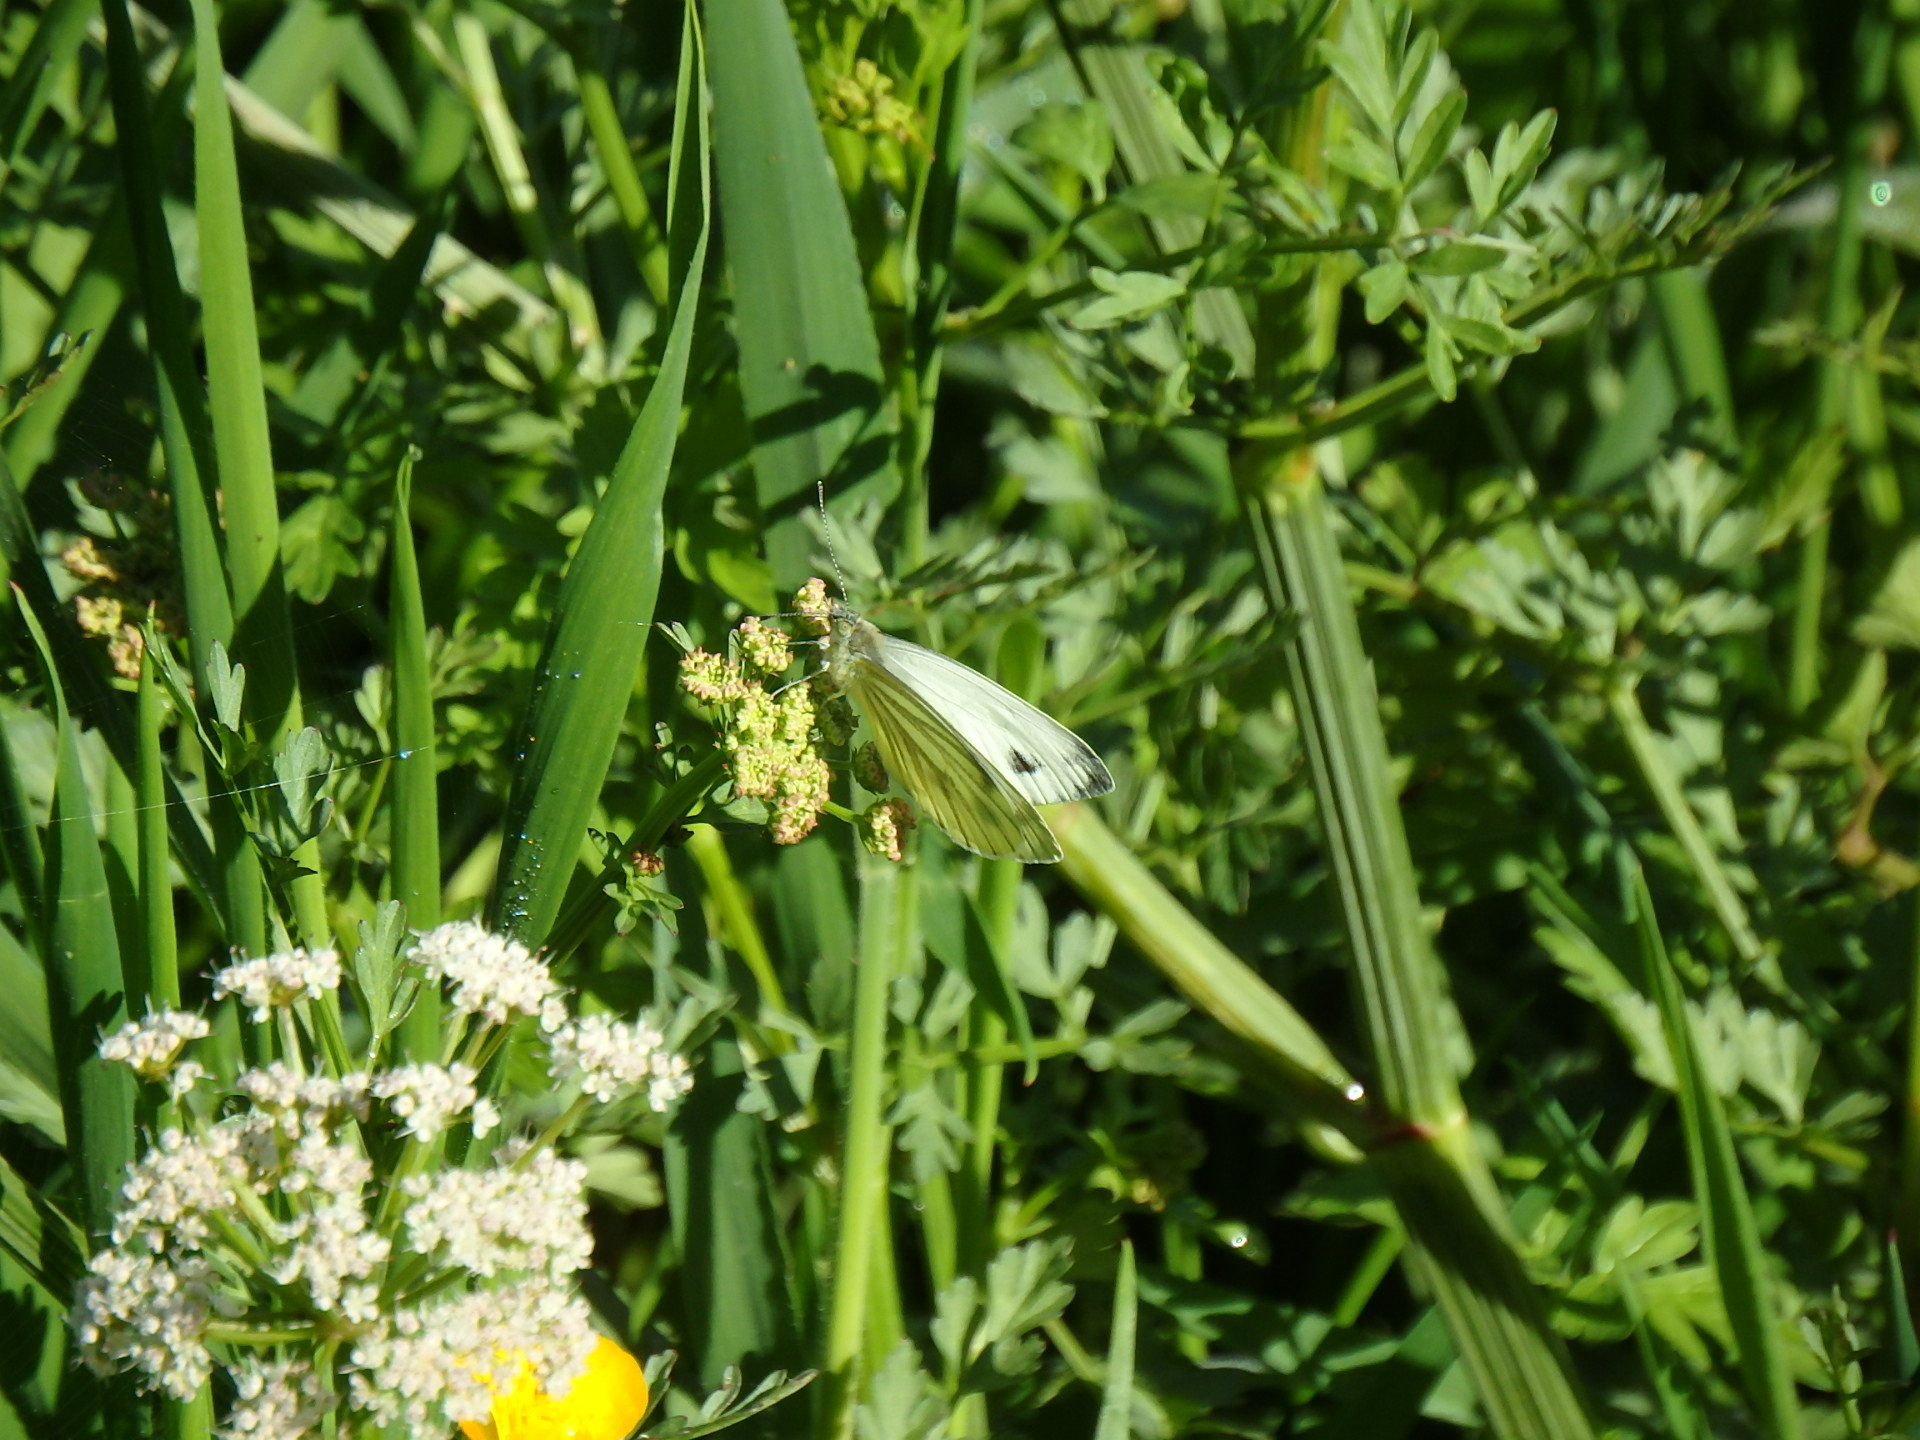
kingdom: Animalia
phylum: Arthropoda
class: Insecta
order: Lepidoptera
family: Pieridae
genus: Pieris
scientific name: Pieris napi
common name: Green-veined white
